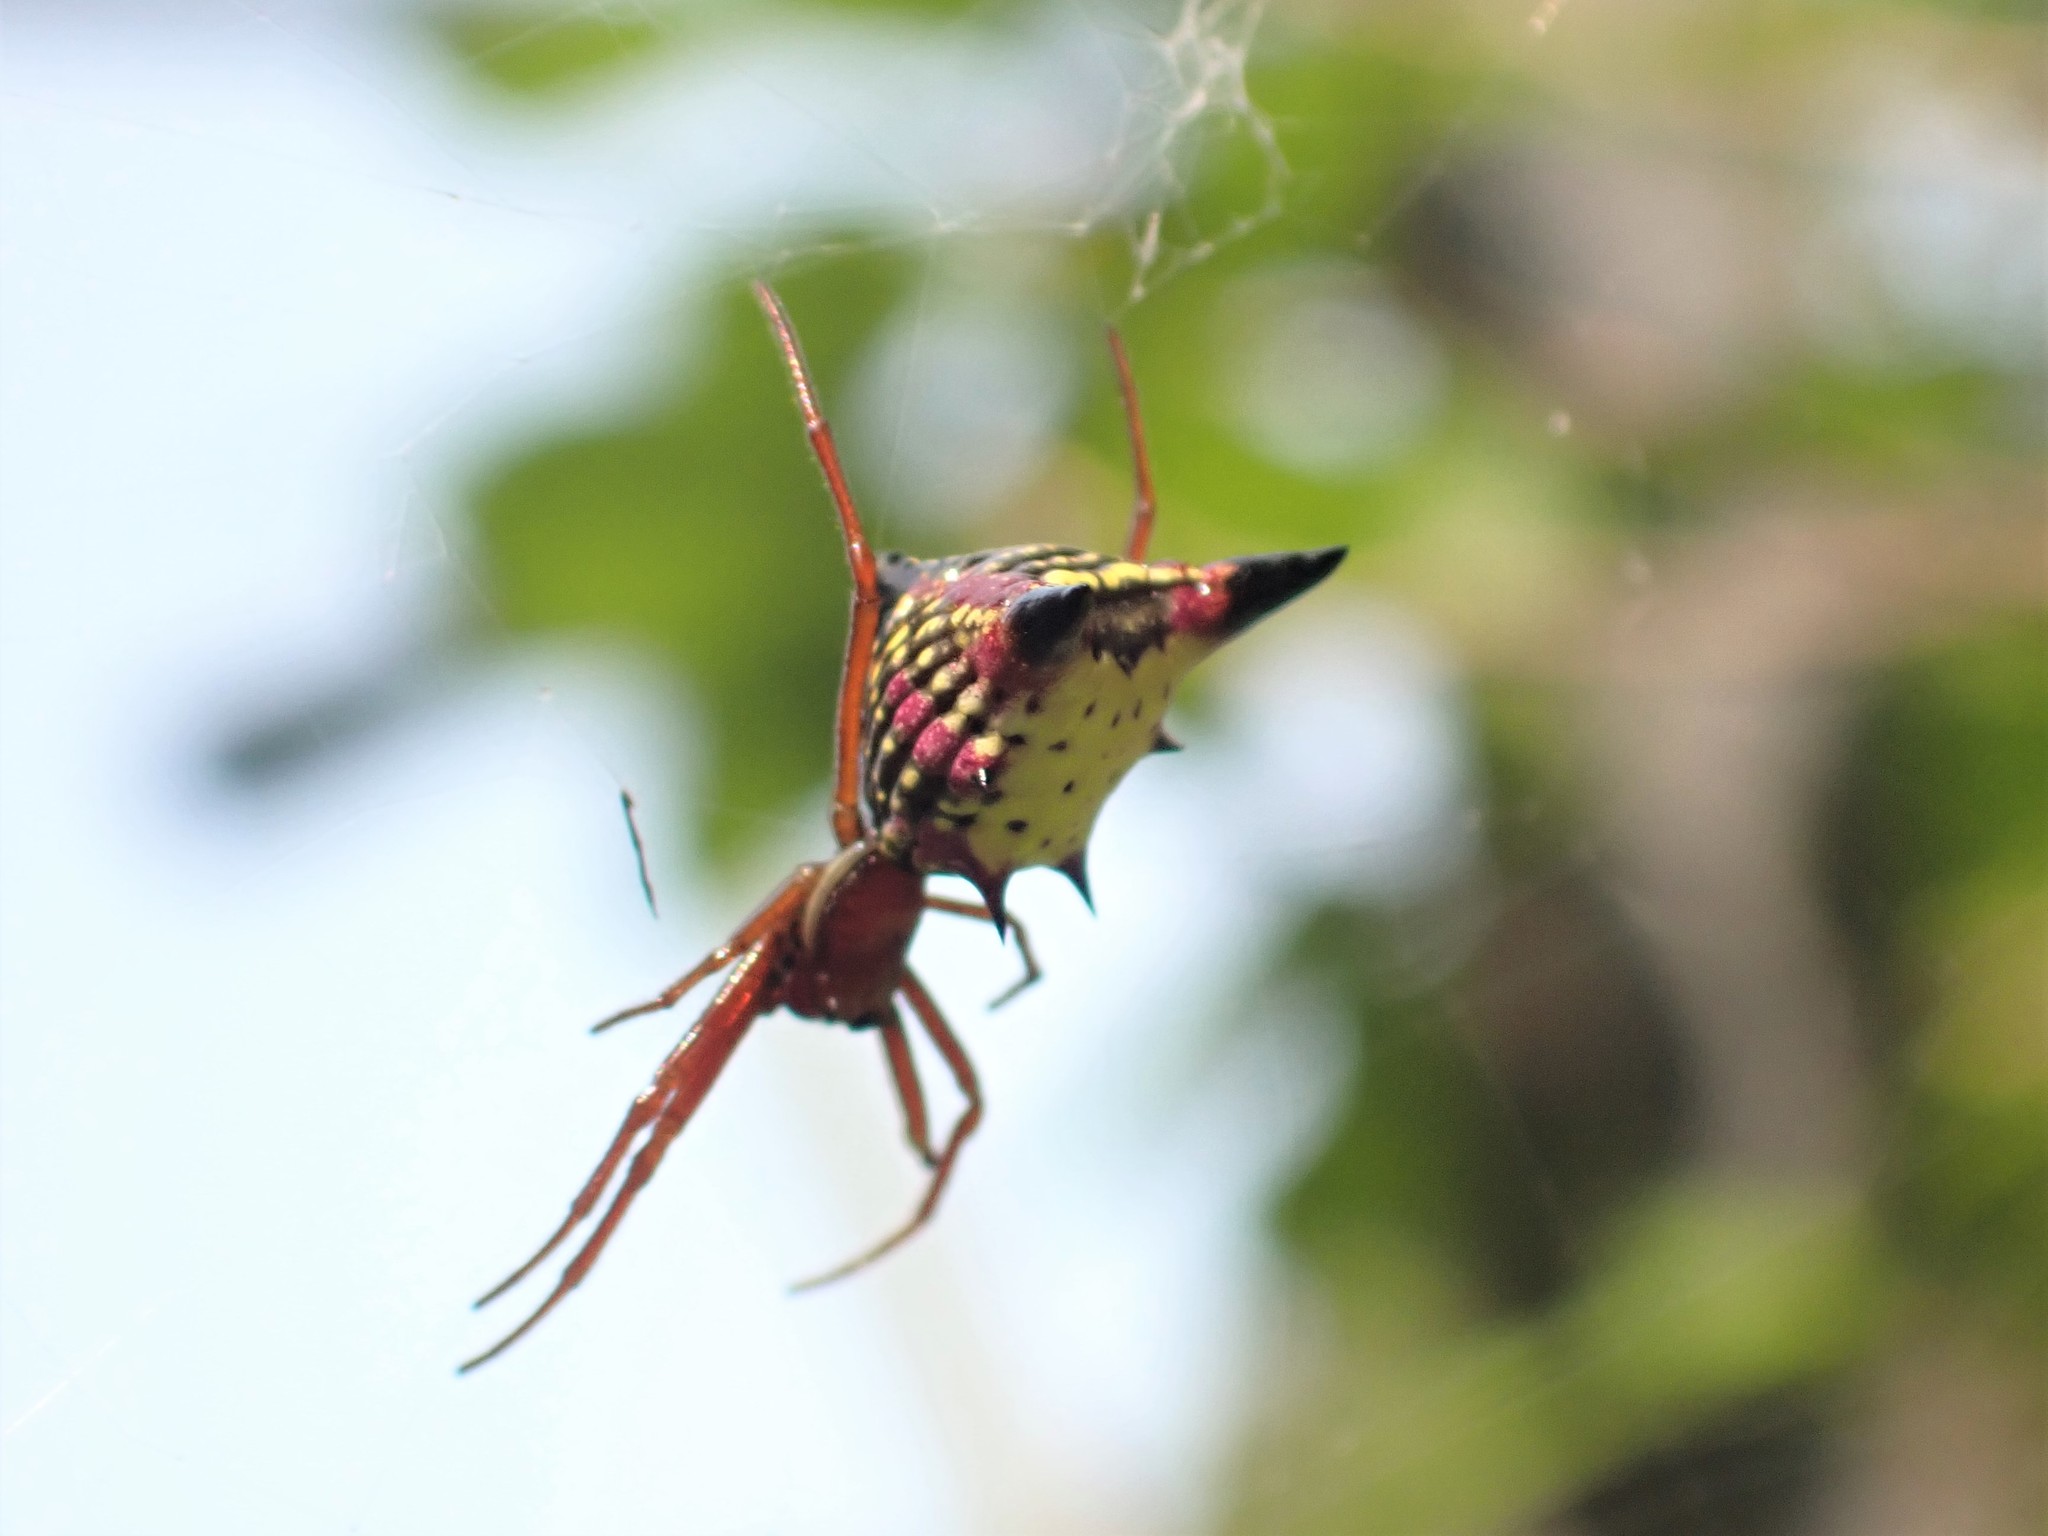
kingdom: Animalia
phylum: Arthropoda
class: Arachnida
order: Araneae
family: Araneidae
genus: Micrathena
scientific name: Micrathena sagittata
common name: Orb weavers
